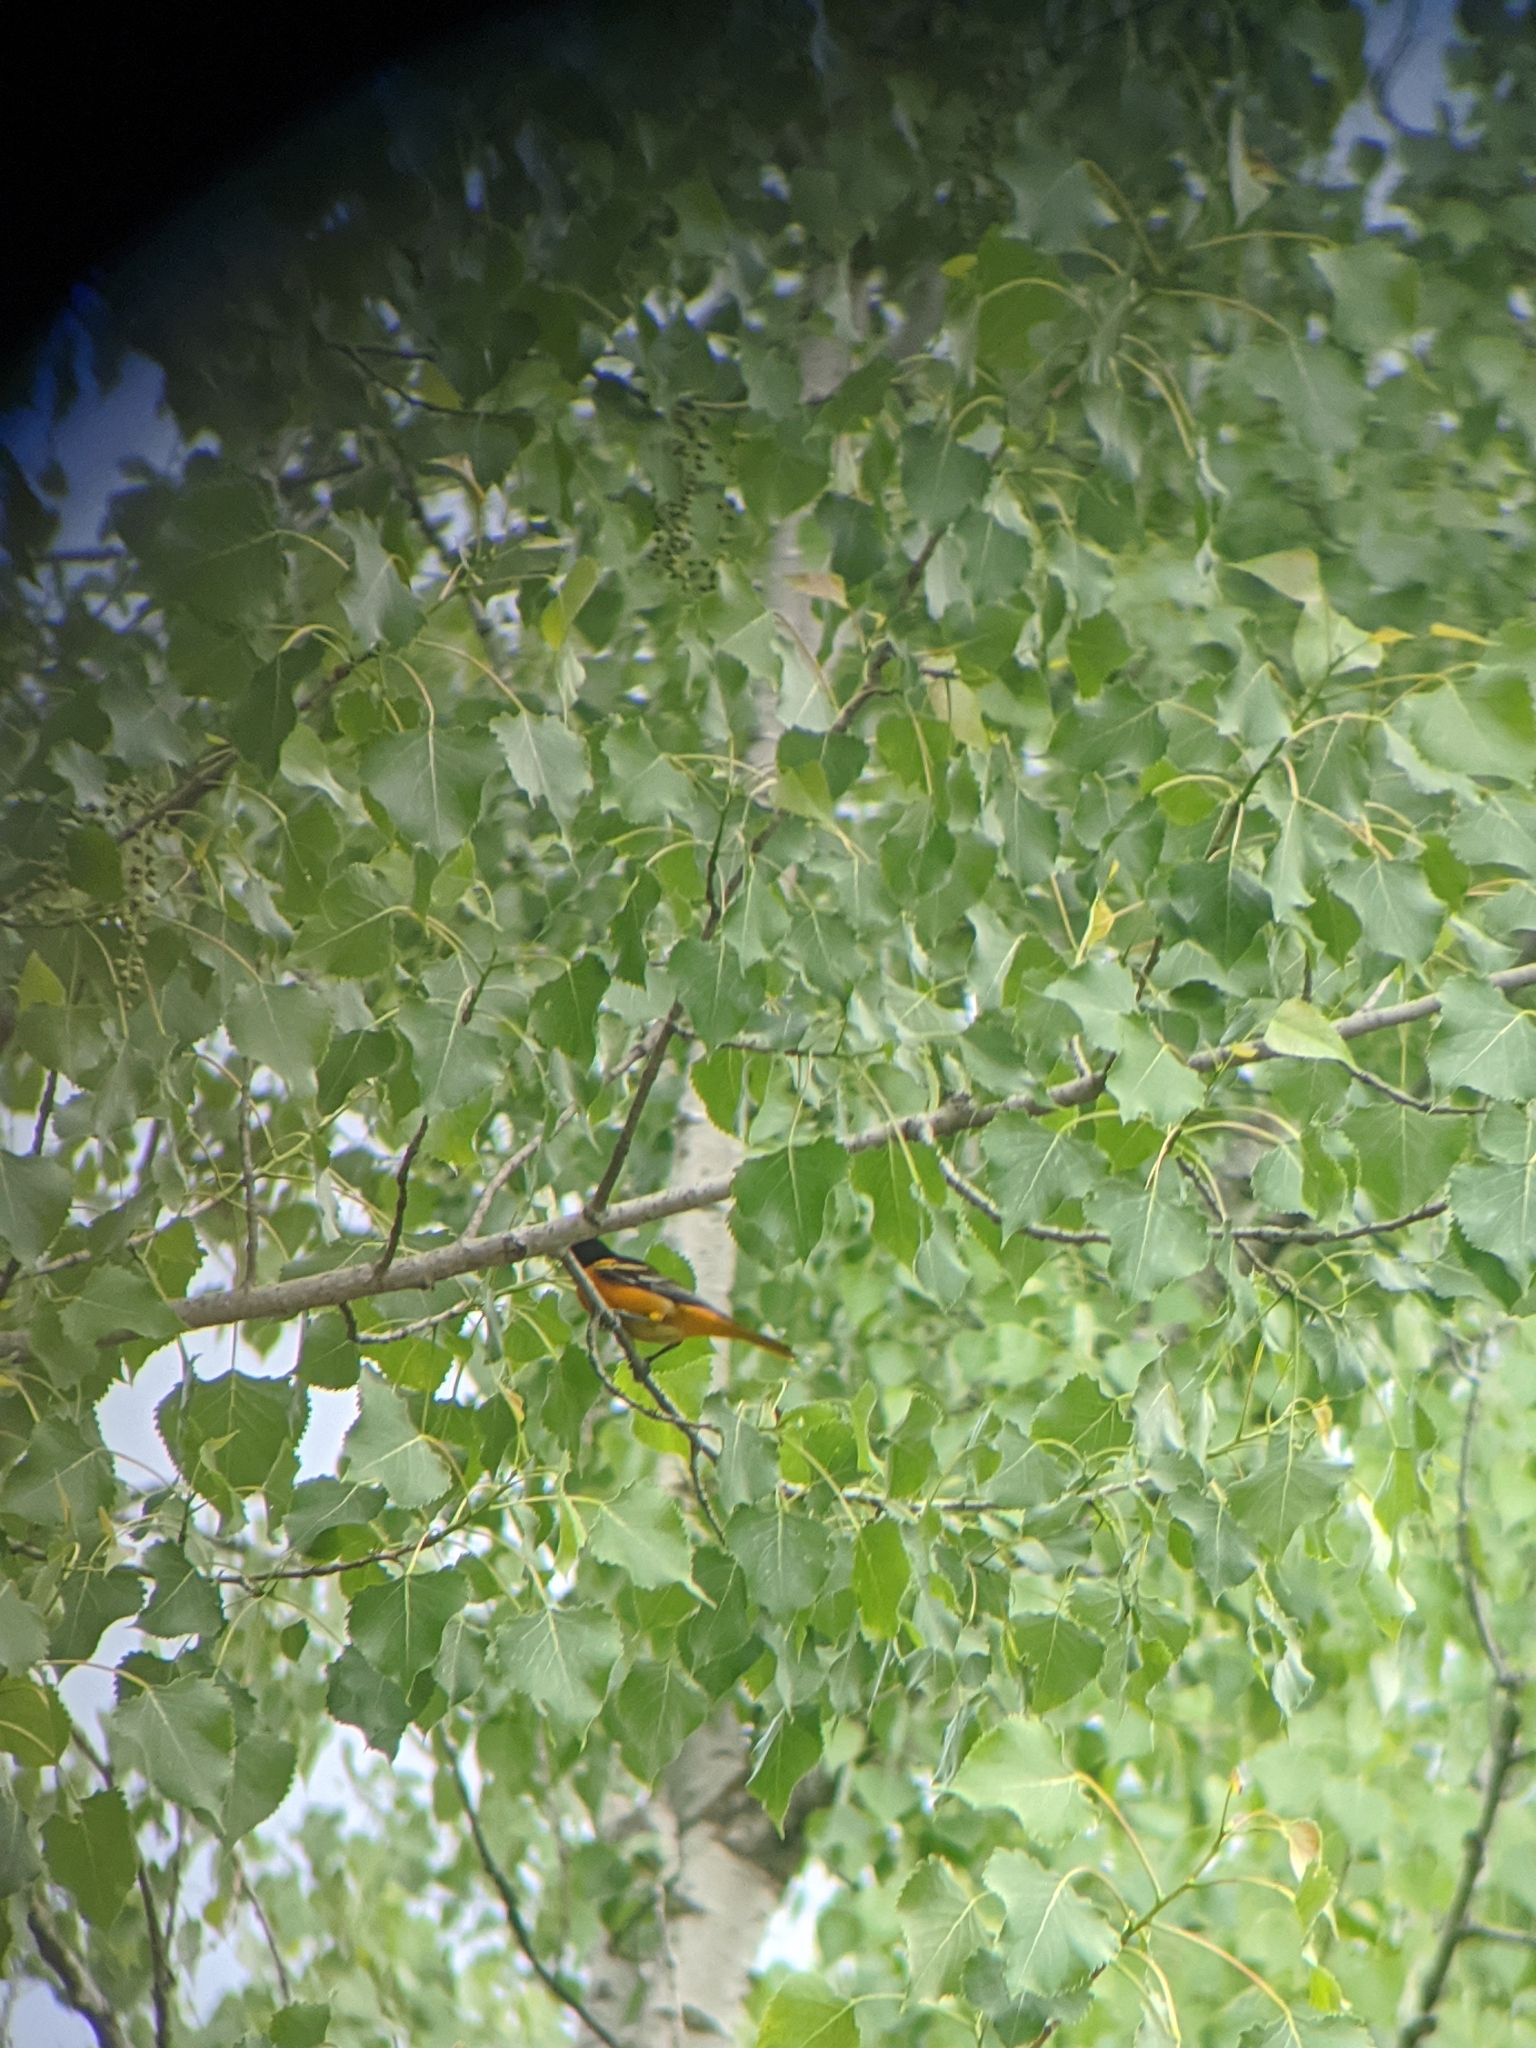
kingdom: Animalia
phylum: Chordata
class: Aves
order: Passeriformes
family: Icteridae
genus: Icterus
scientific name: Icterus galbula
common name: Baltimore oriole
